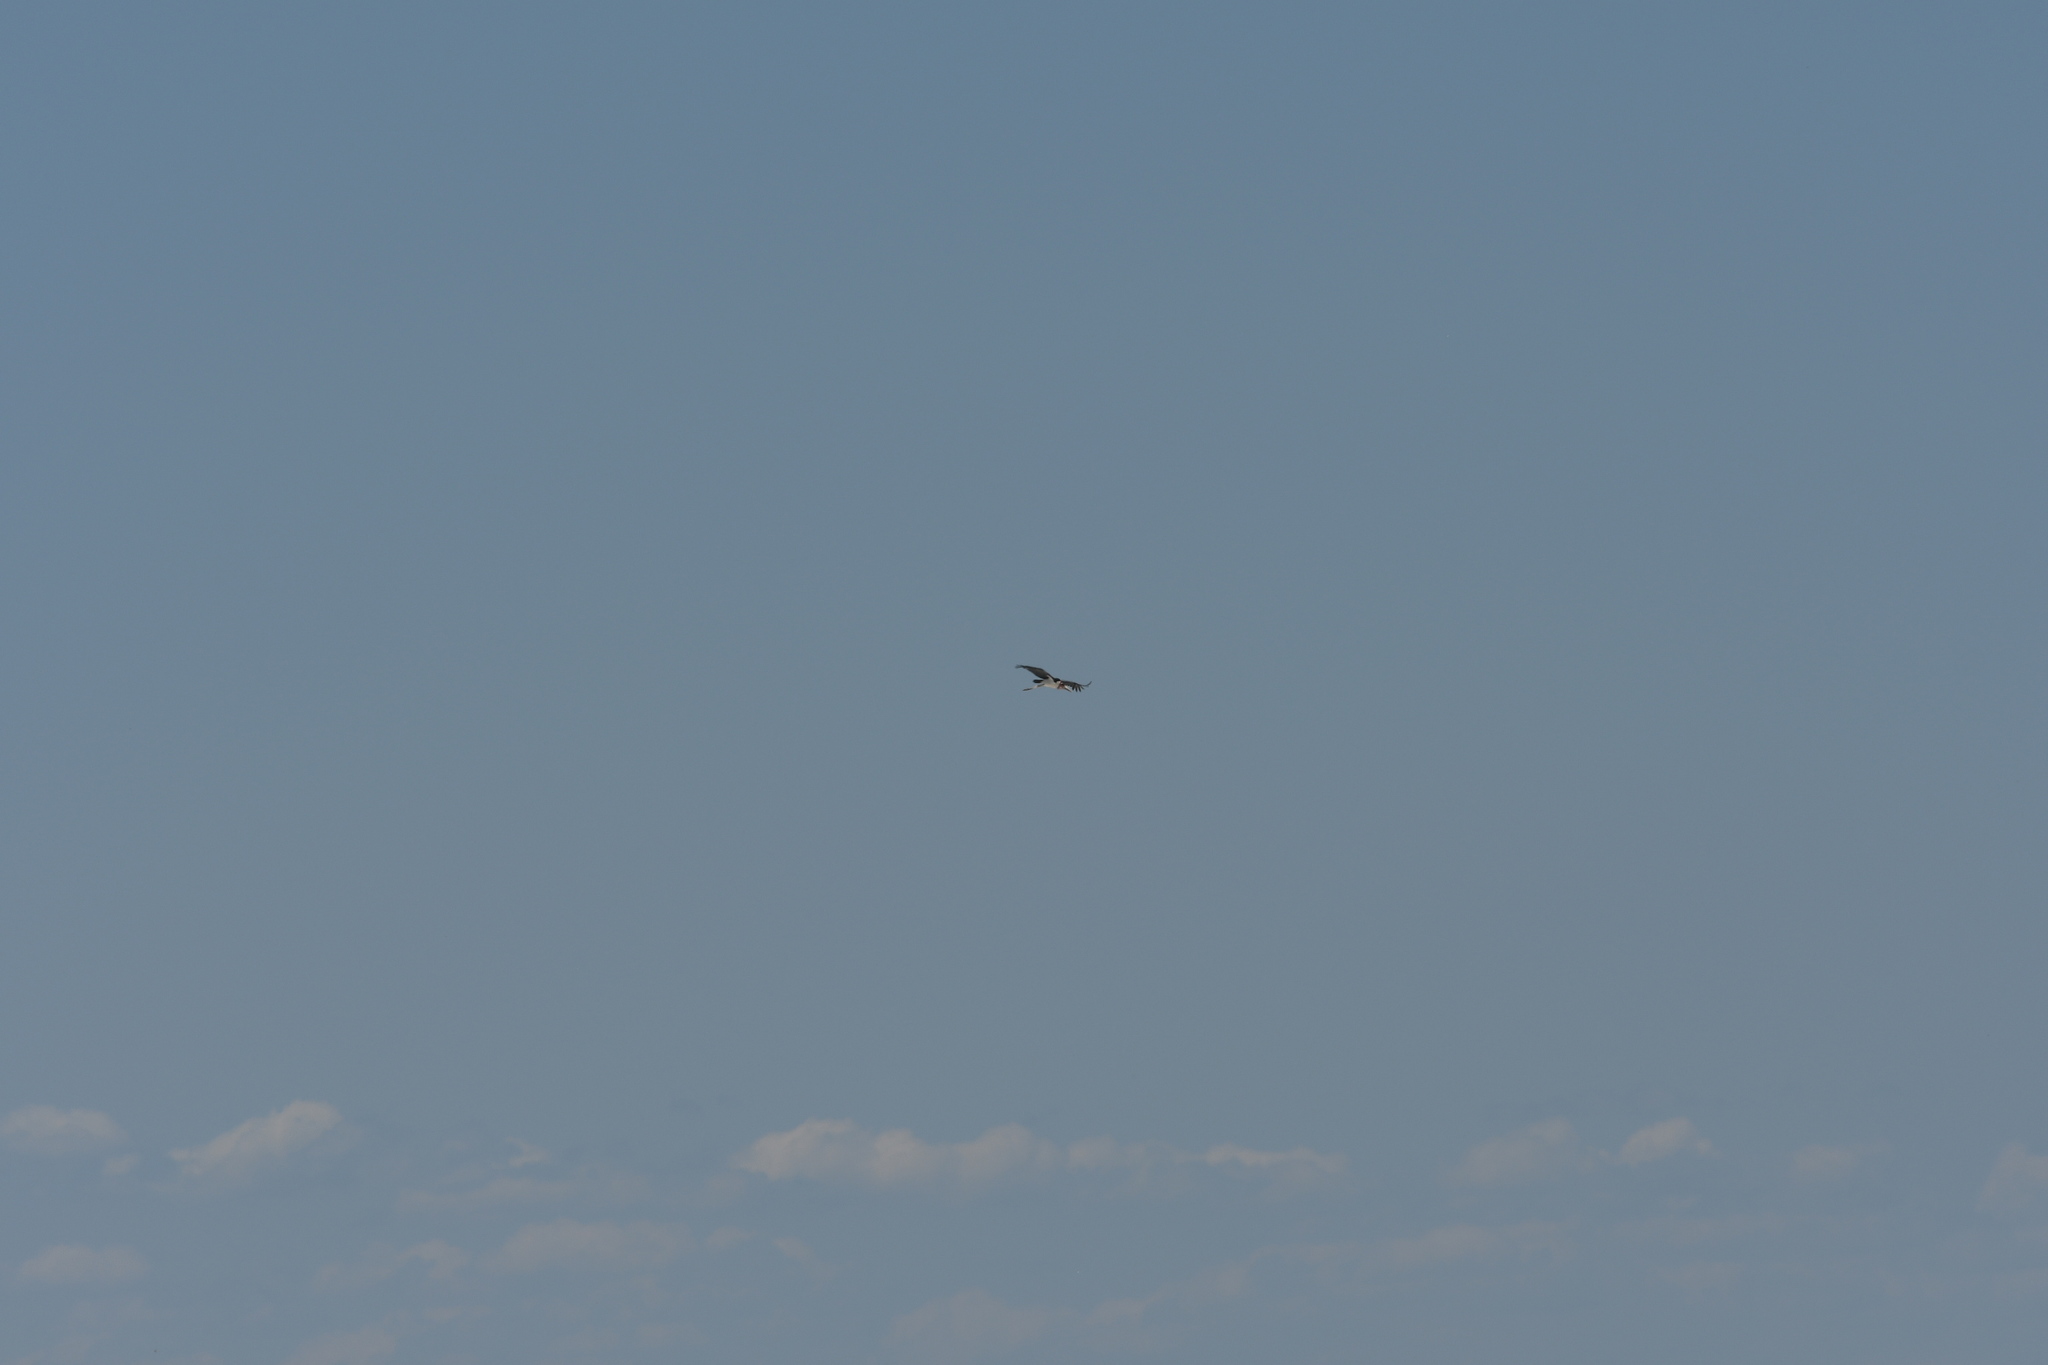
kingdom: Animalia
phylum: Chordata
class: Aves
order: Ciconiiformes
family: Ciconiidae
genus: Leptoptilos
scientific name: Leptoptilos crumenifer
